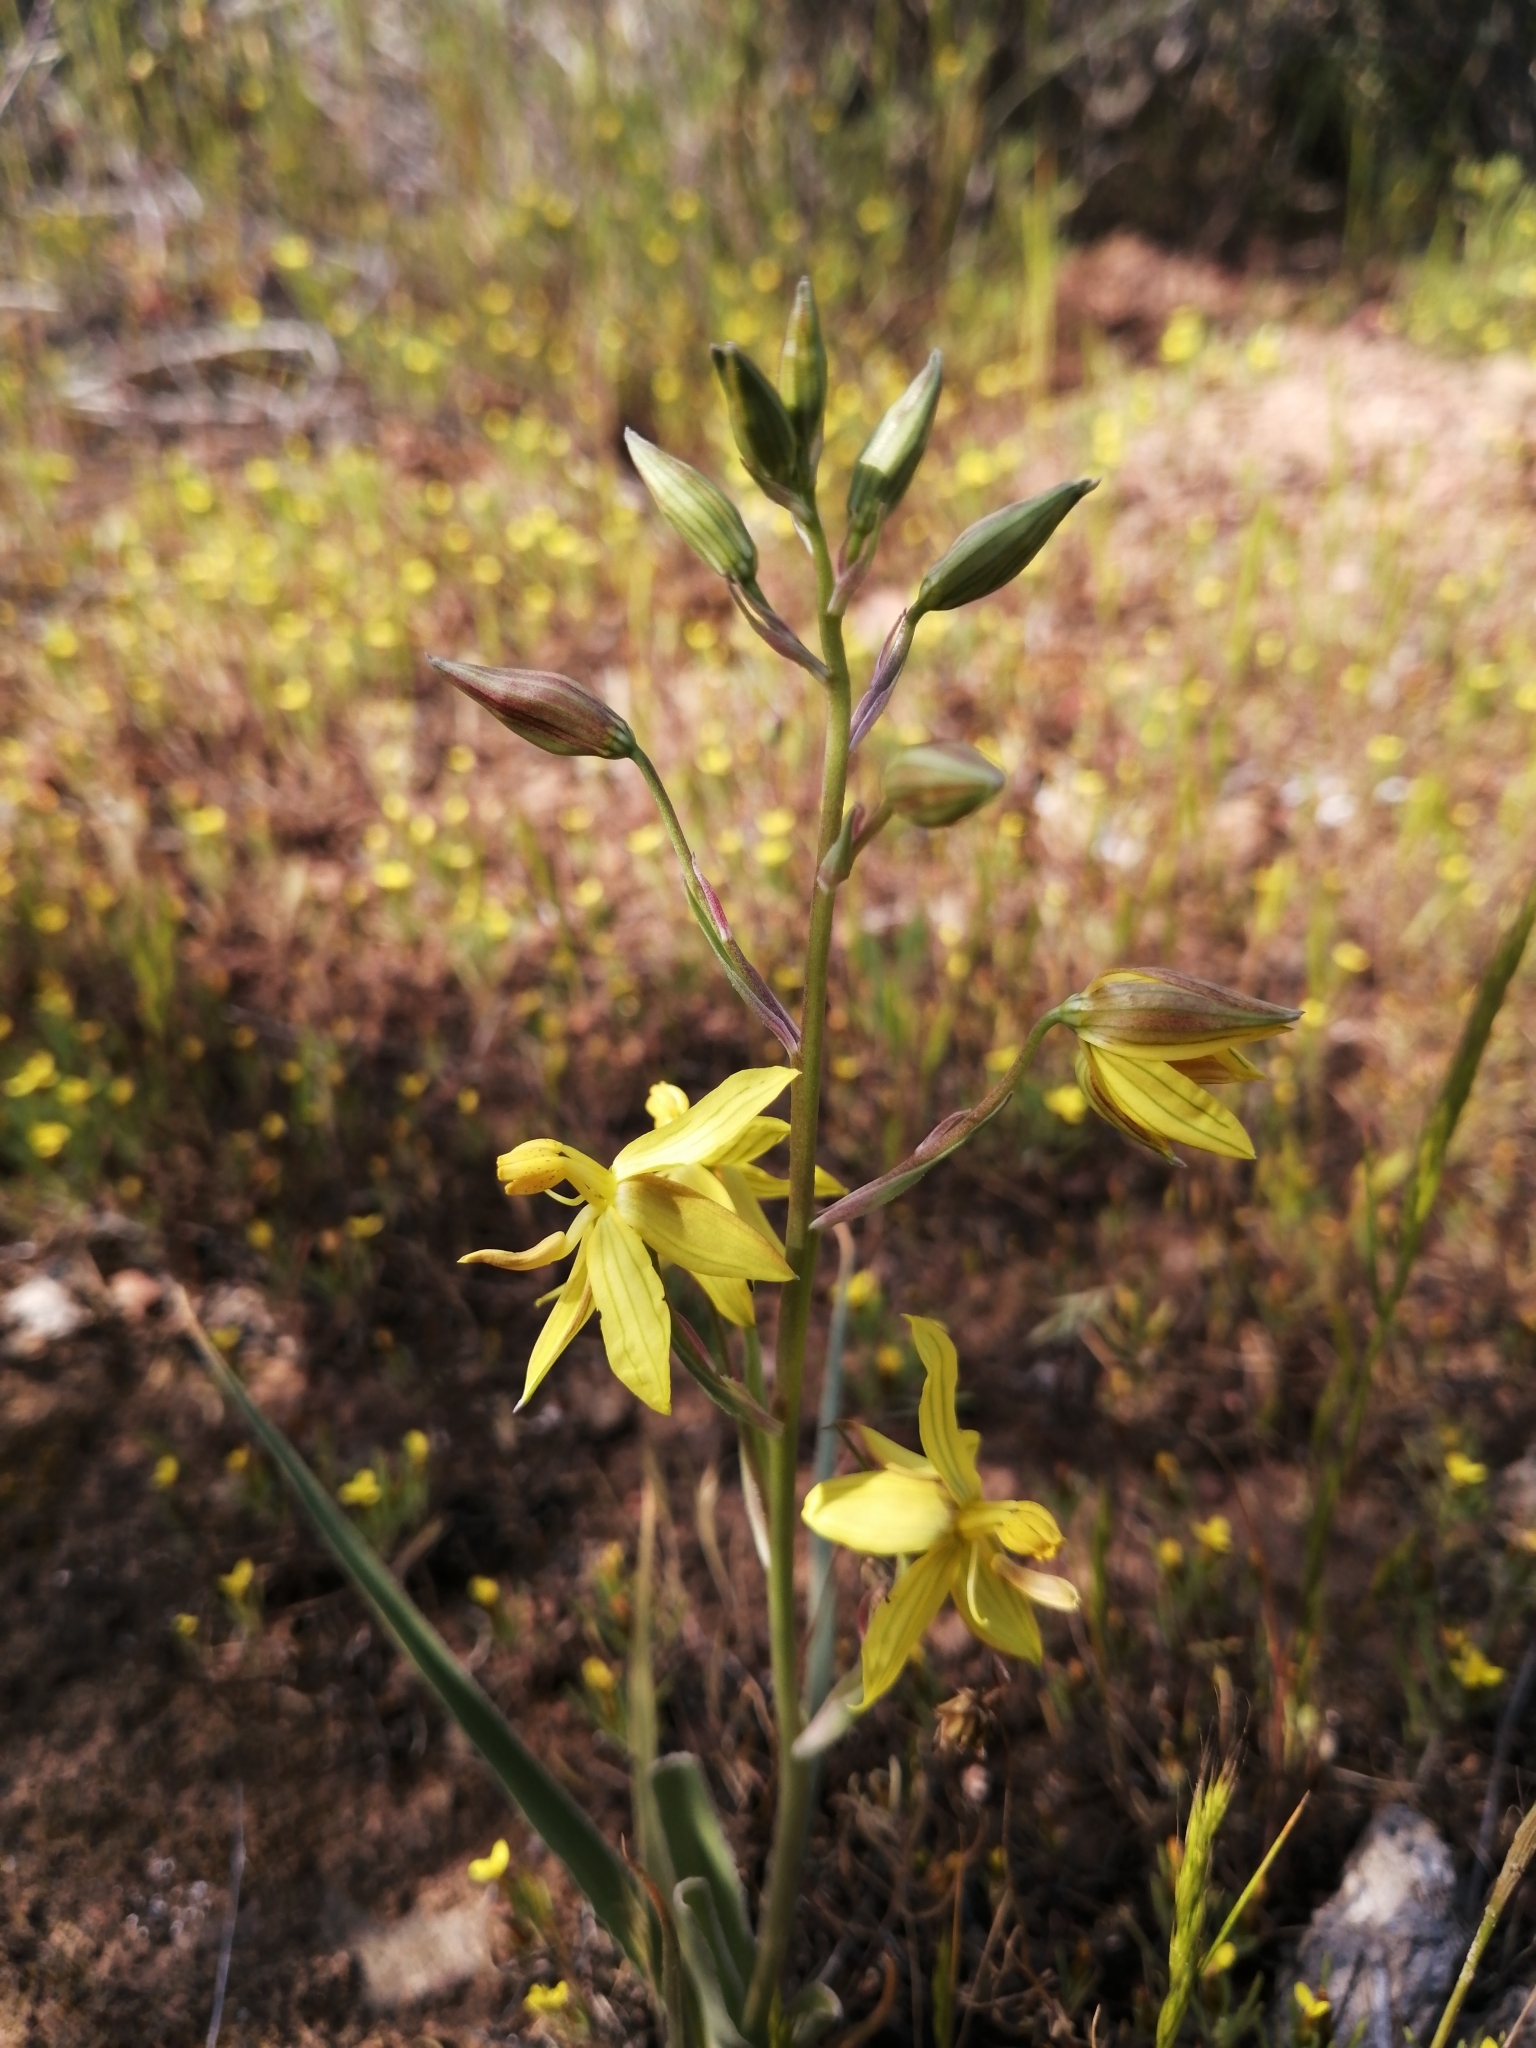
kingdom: Plantae
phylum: Tracheophyta
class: Liliopsida
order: Asparagales
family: Tecophilaeaceae
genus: Cyanella
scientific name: Cyanella lutea
